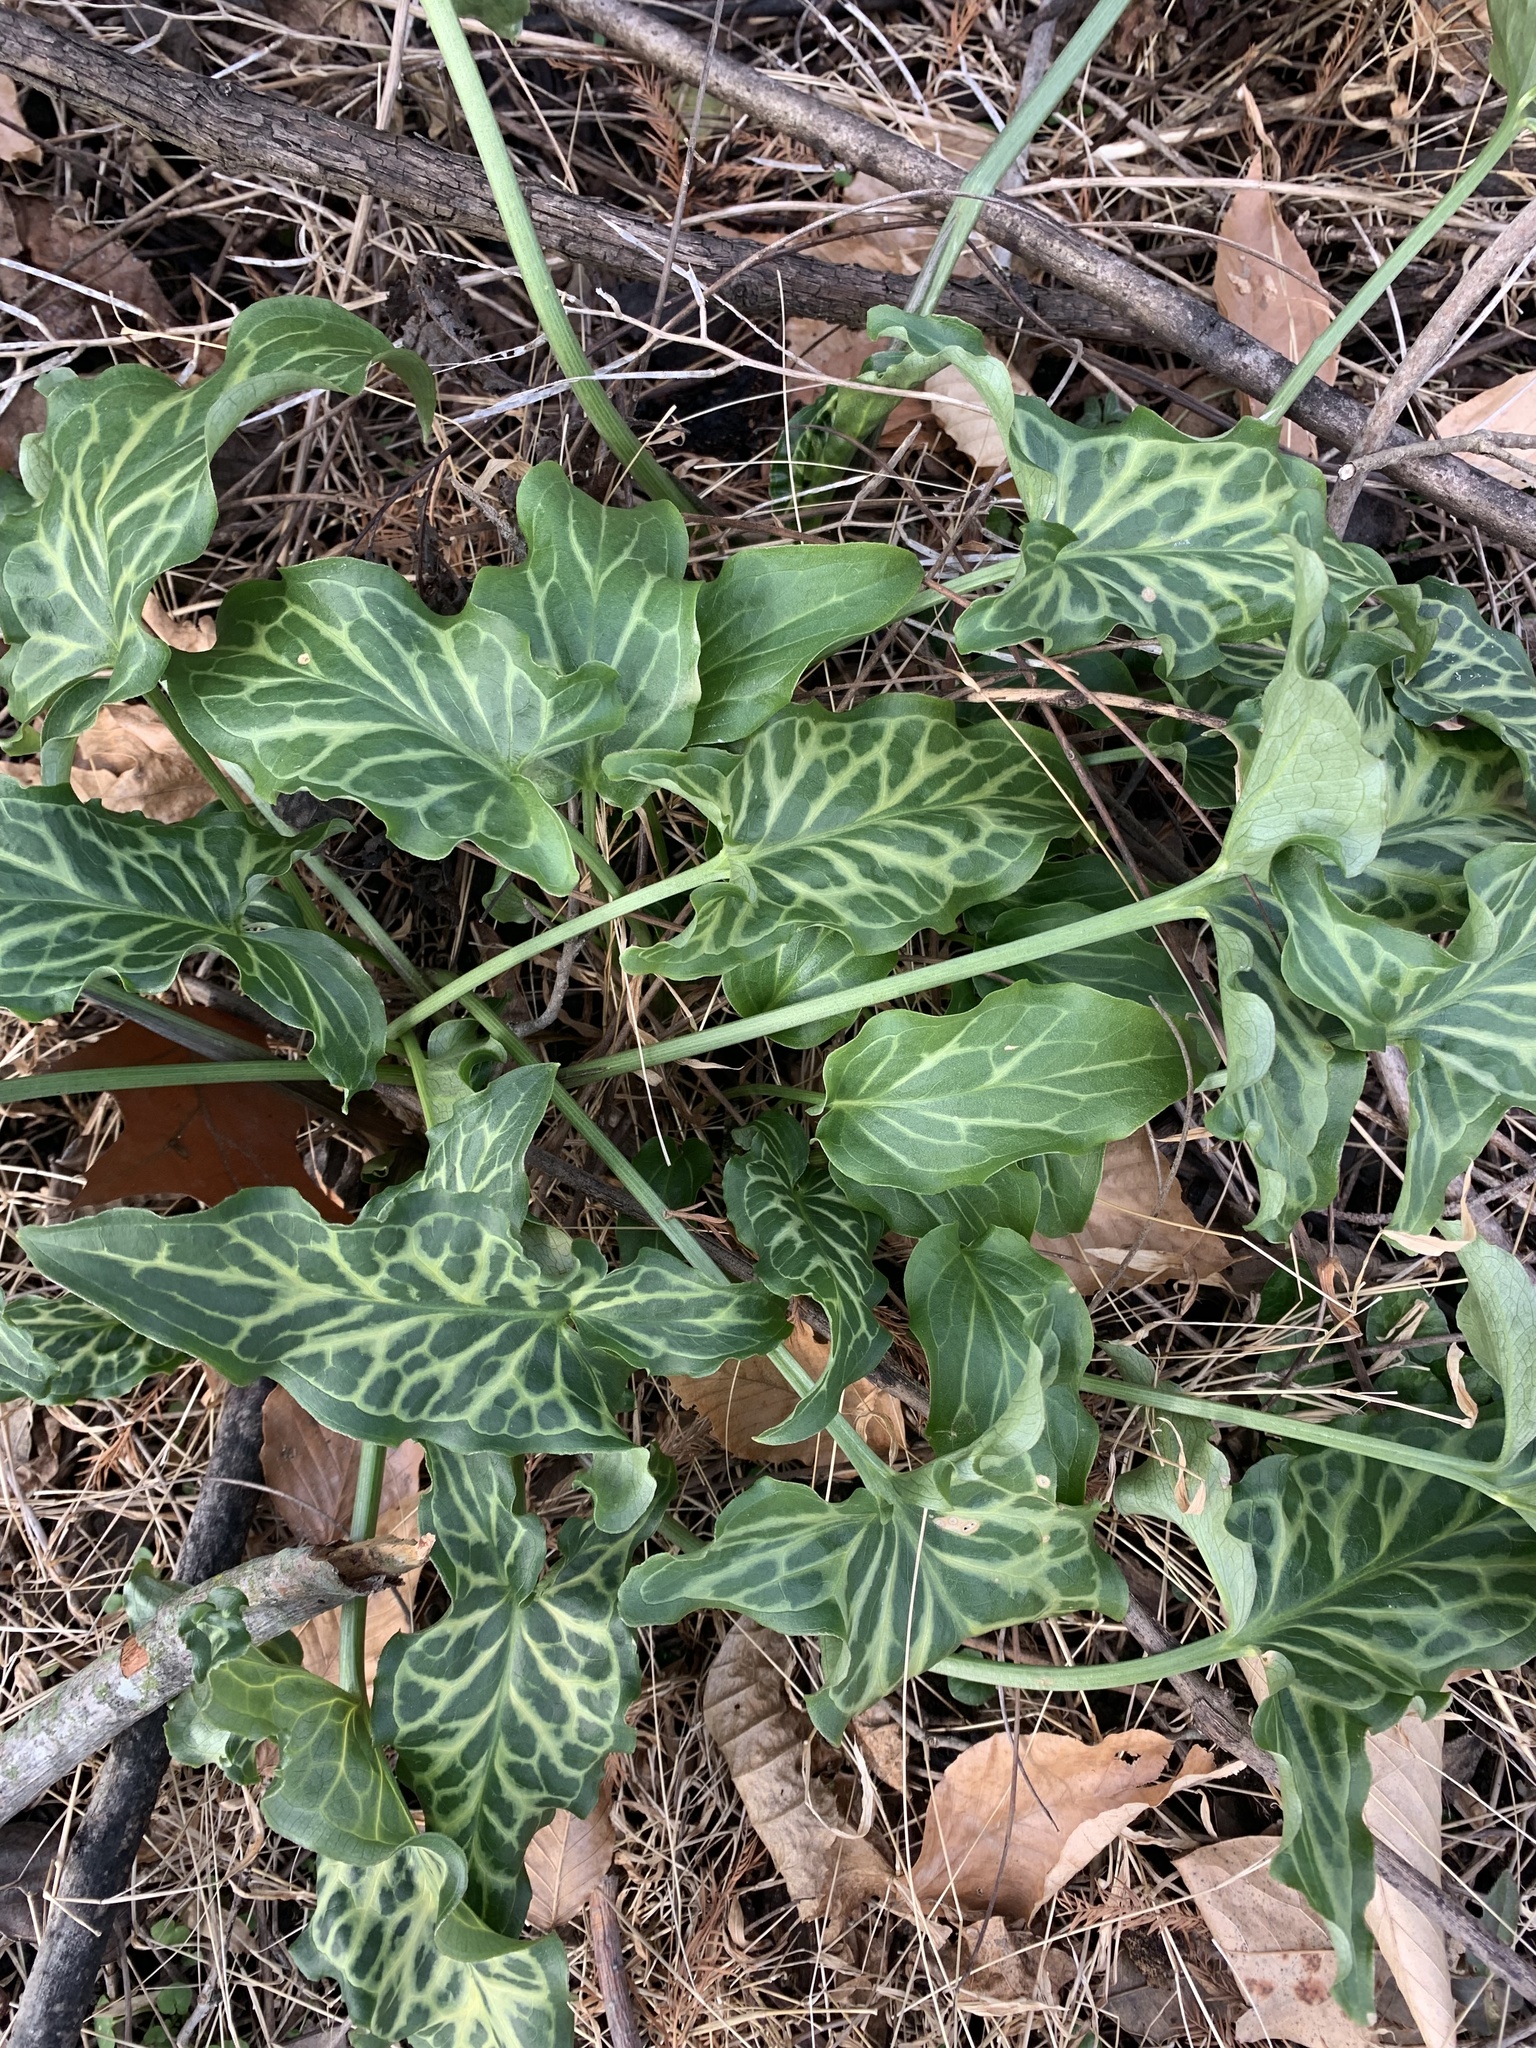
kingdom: Plantae
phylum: Tracheophyta
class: Liliopsida
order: Alismatales
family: Araceae
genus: Arum
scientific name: Arum italicum
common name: Italian lords-and-ladies
